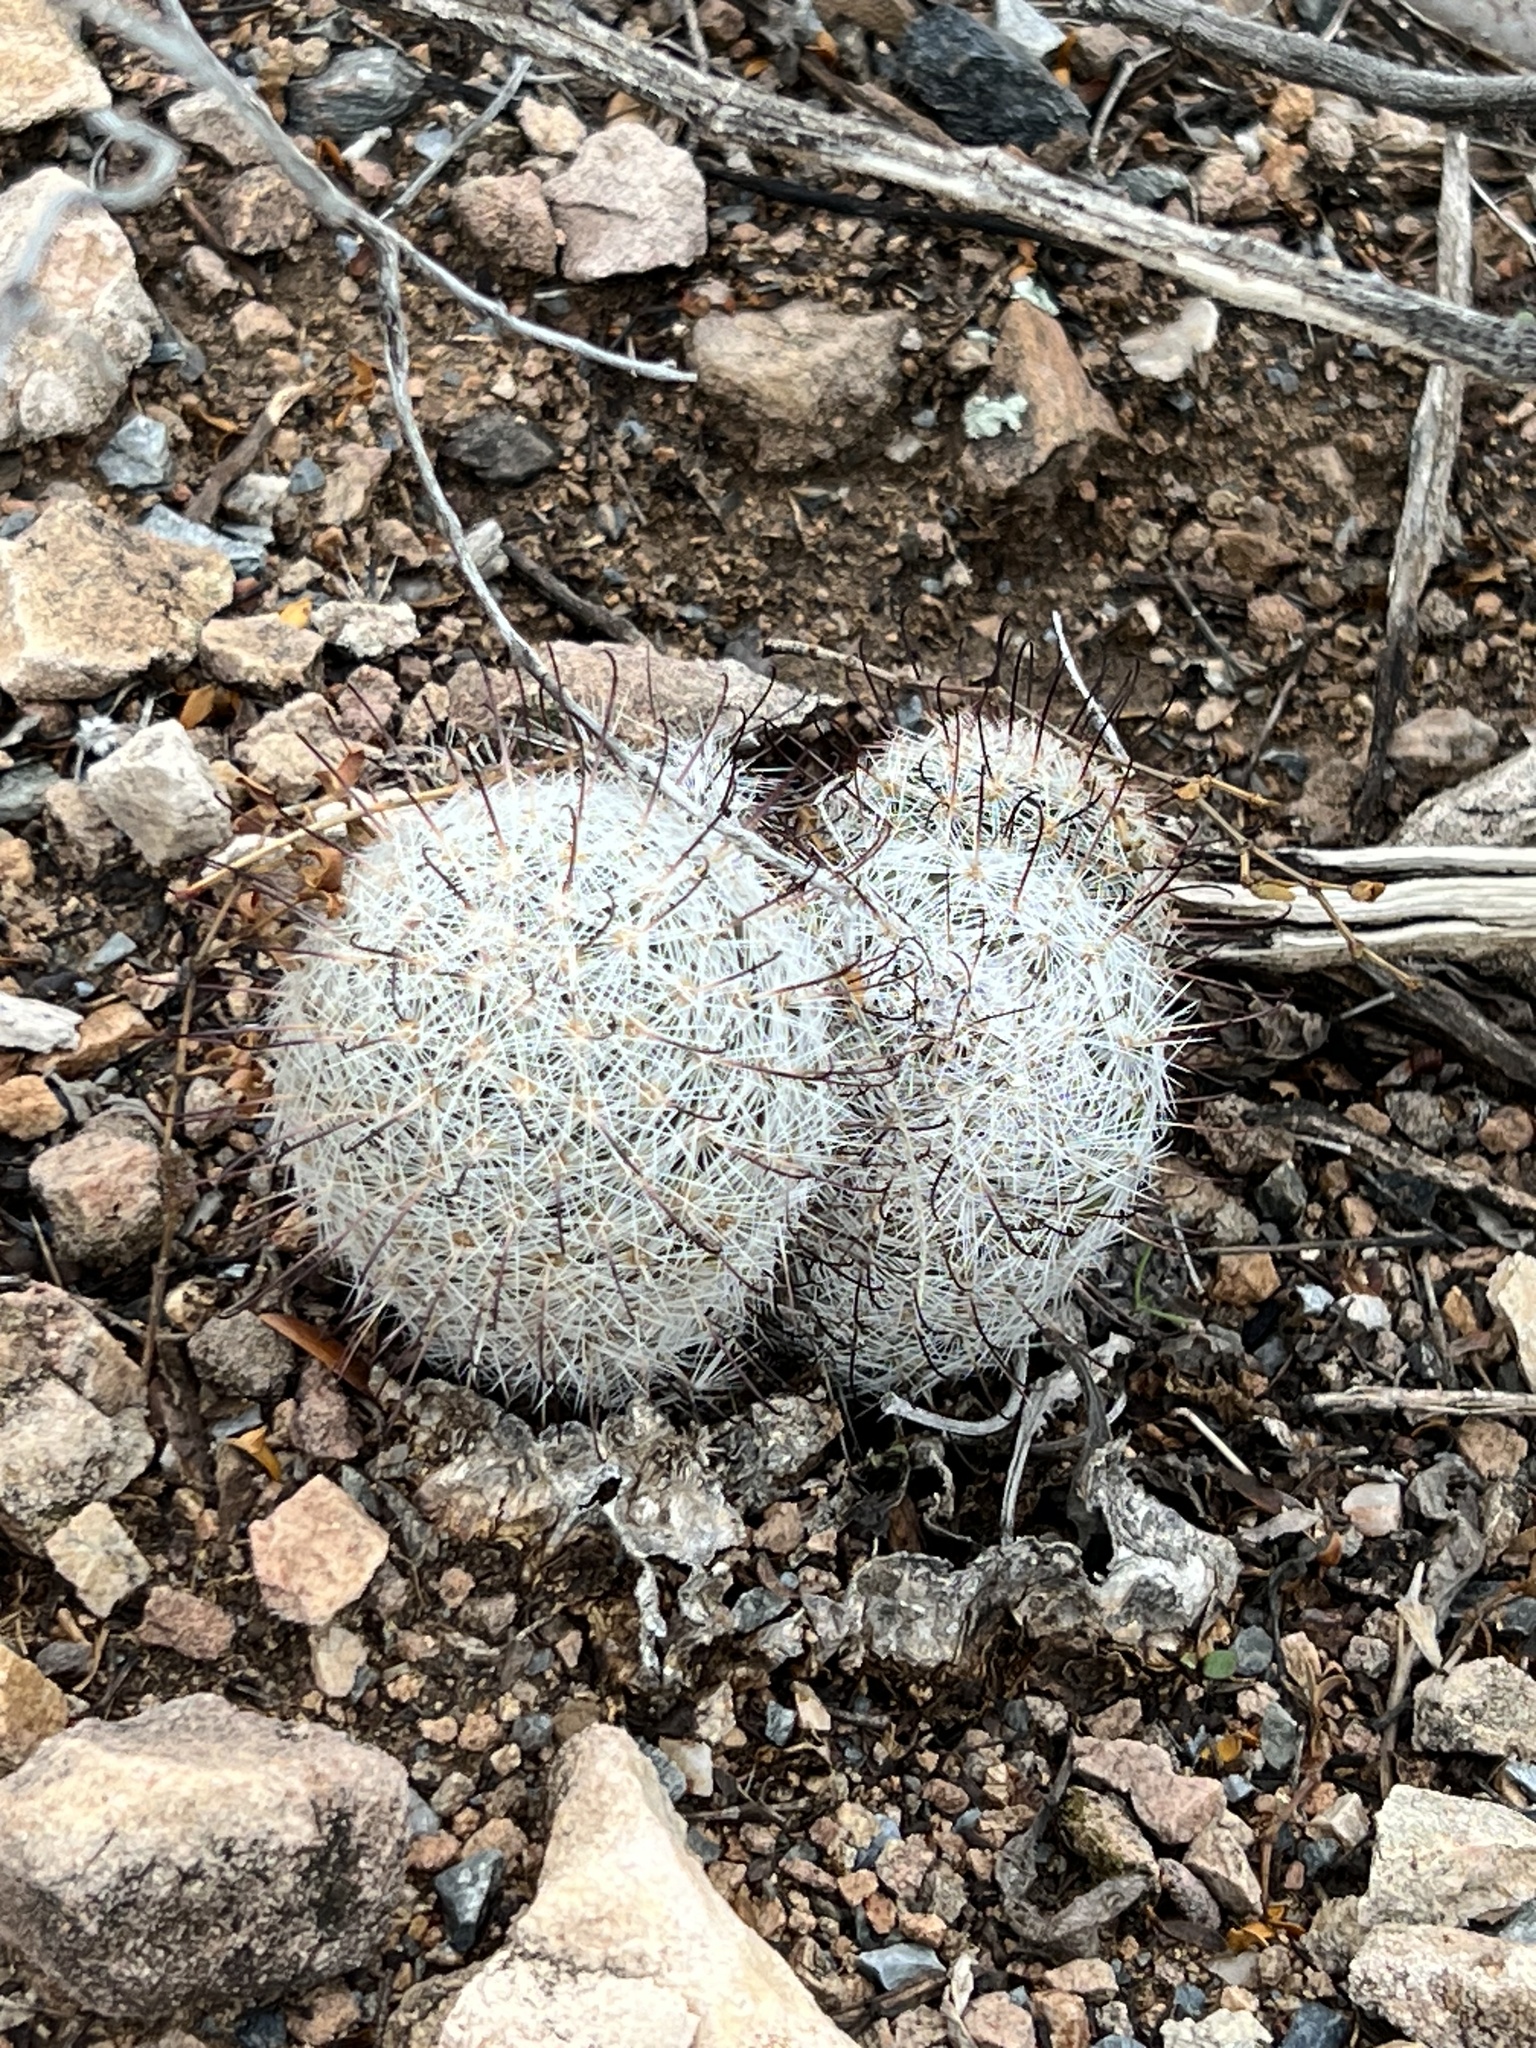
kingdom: Plantae
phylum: Tracheophyta
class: Magnoliopsida
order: Caryophyllales
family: Cactaceae
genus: Cochemiea
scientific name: Cochemiea grahamii
